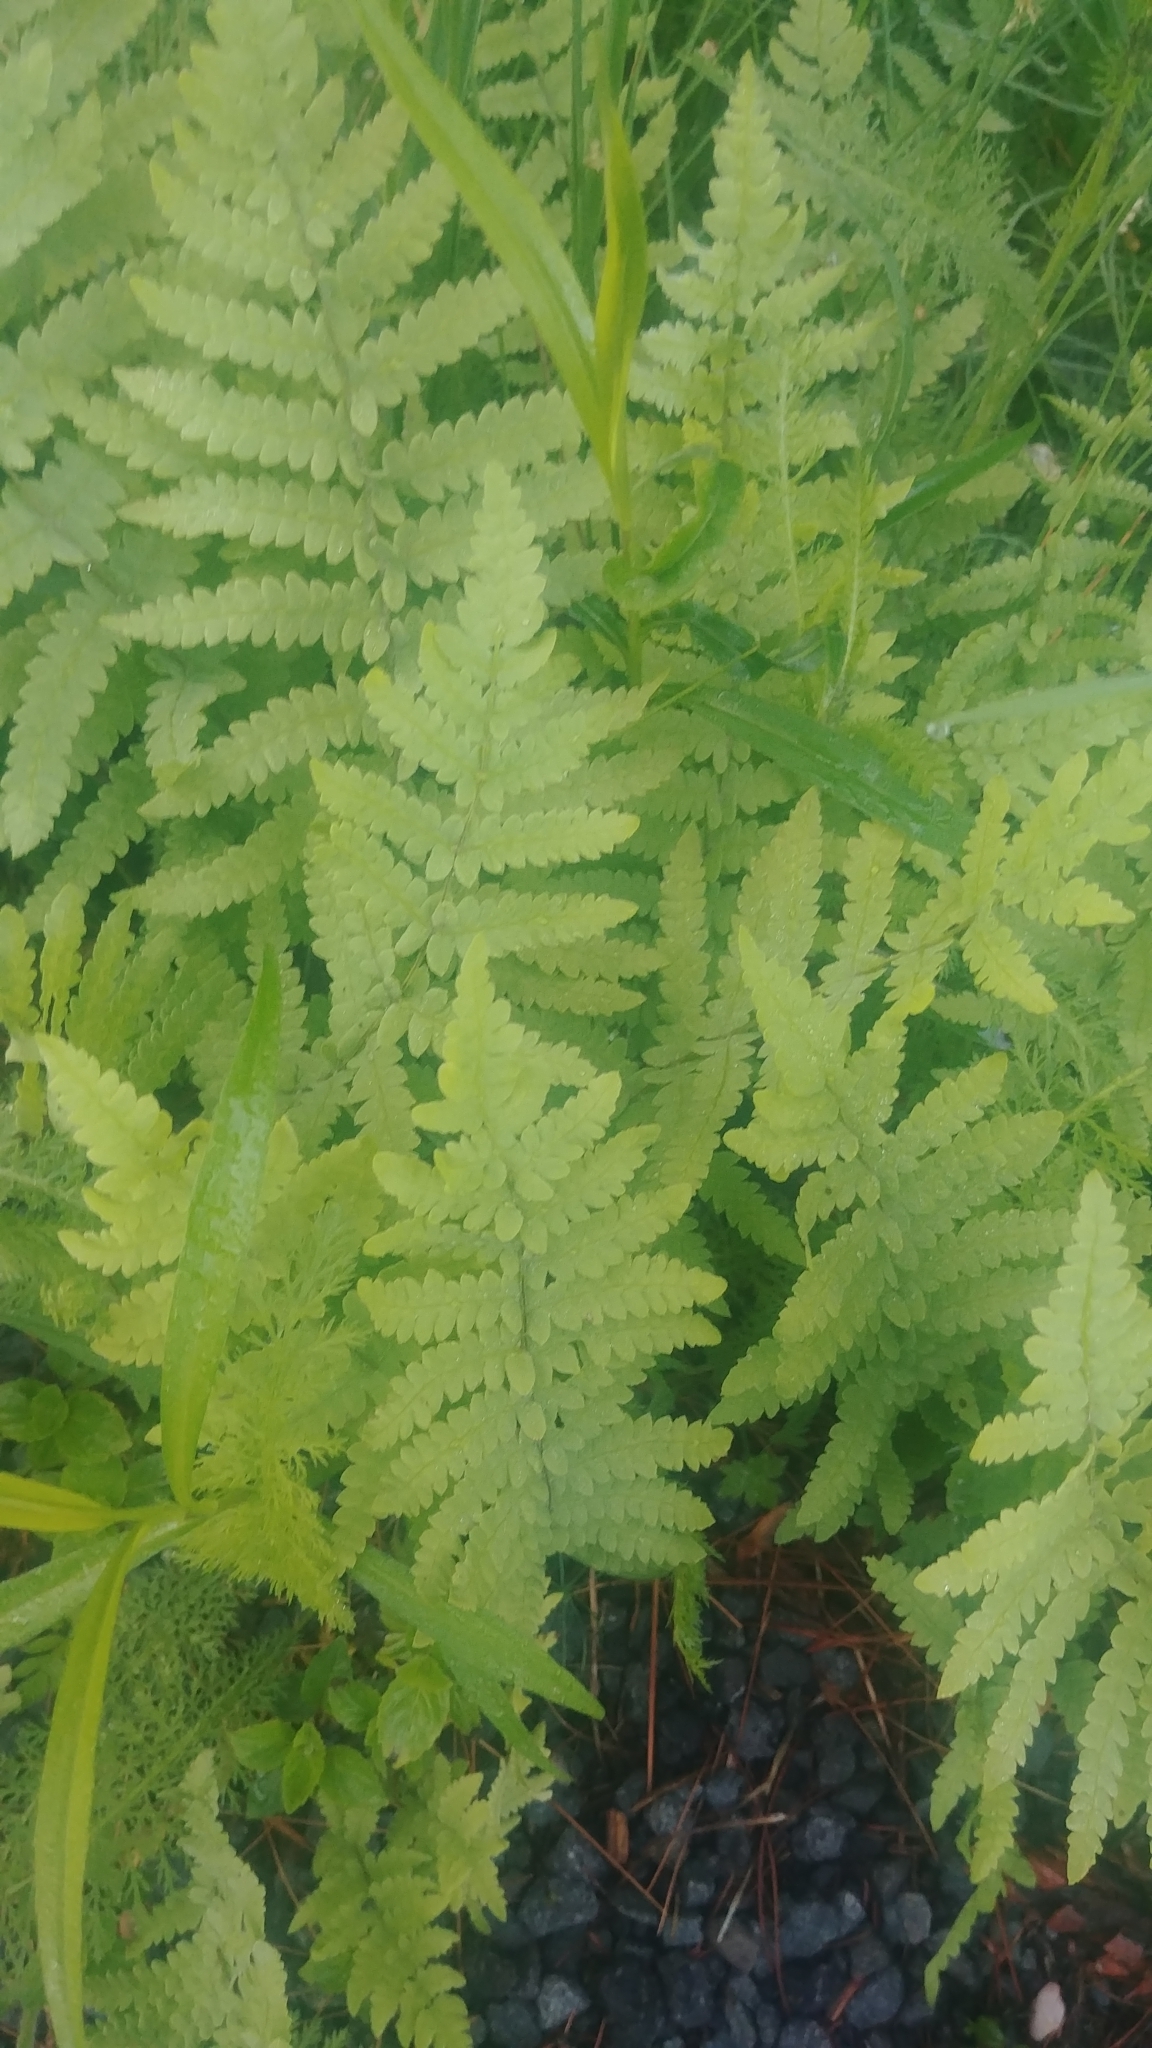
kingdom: Plantae
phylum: Tracheophyta
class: Polypodiopsida
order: Polypodiales
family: Thelypteridaceae
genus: Thelypteris
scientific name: Thelypteris palustris
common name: Marsh fern
